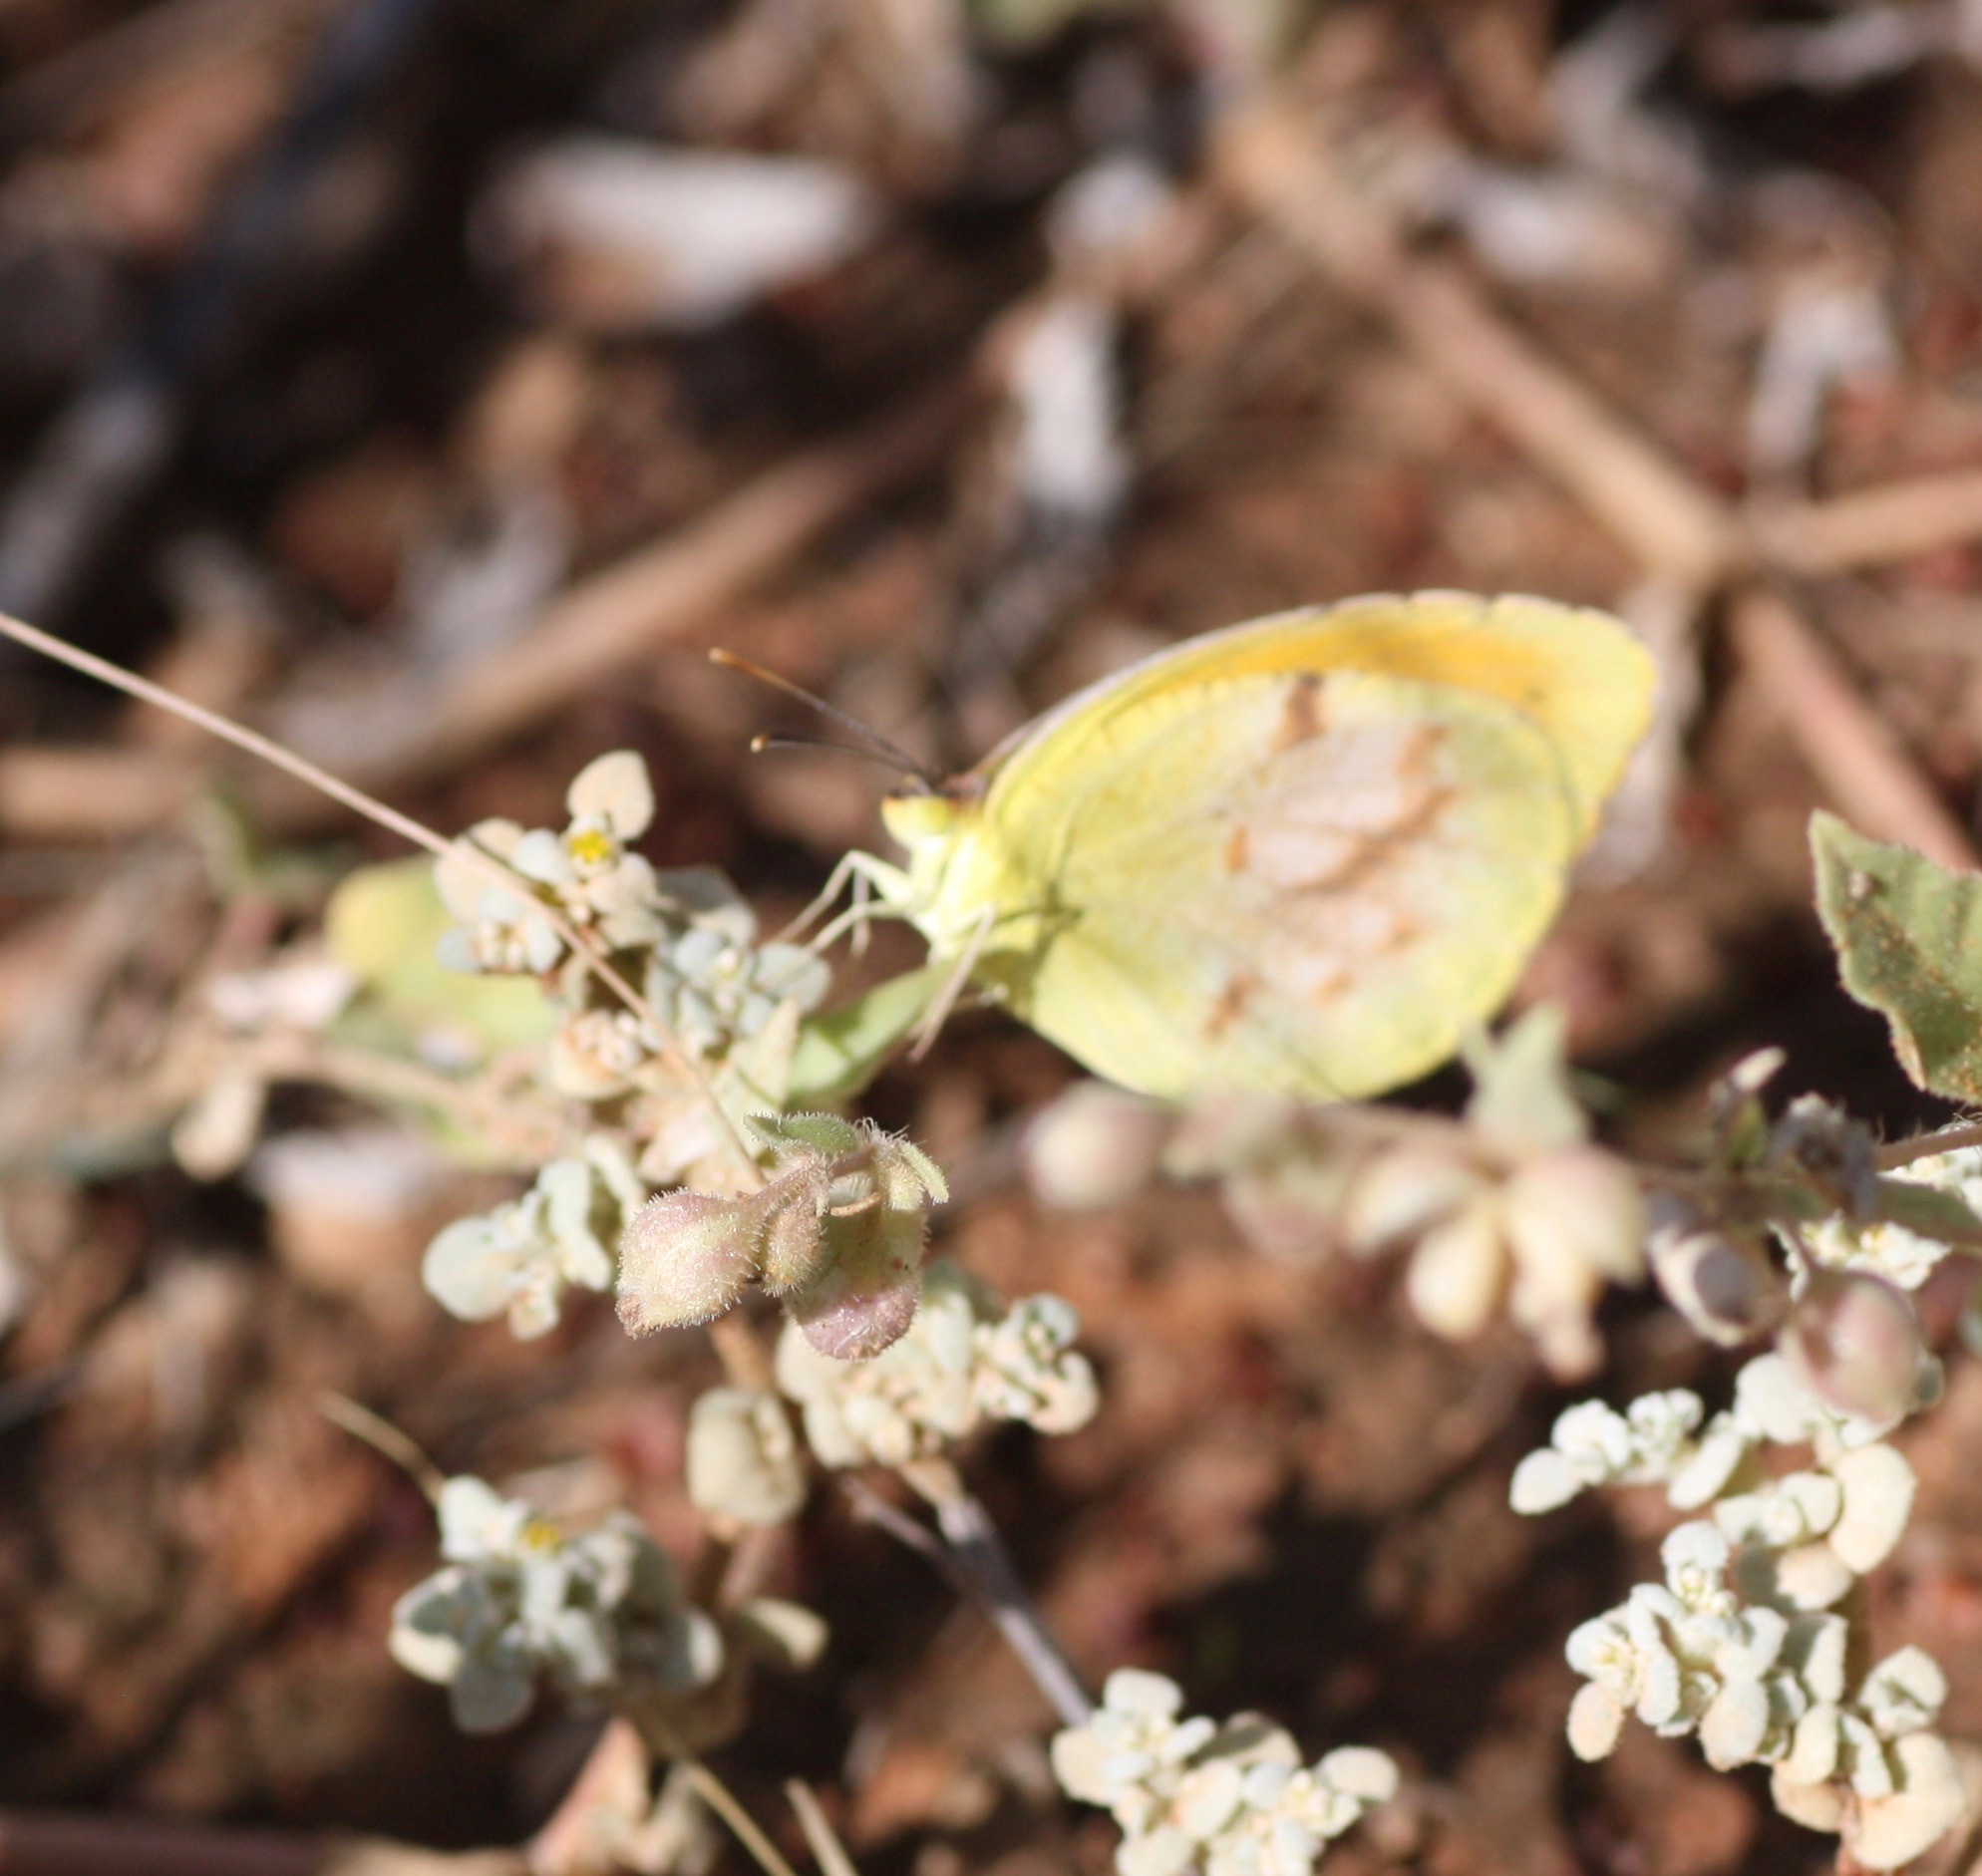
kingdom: Animalia
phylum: Arthropoda
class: Insecta
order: Lepidoptera
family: Pieridae
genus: Abaeis
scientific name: Abaeis nicippe
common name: Sleepy orange
